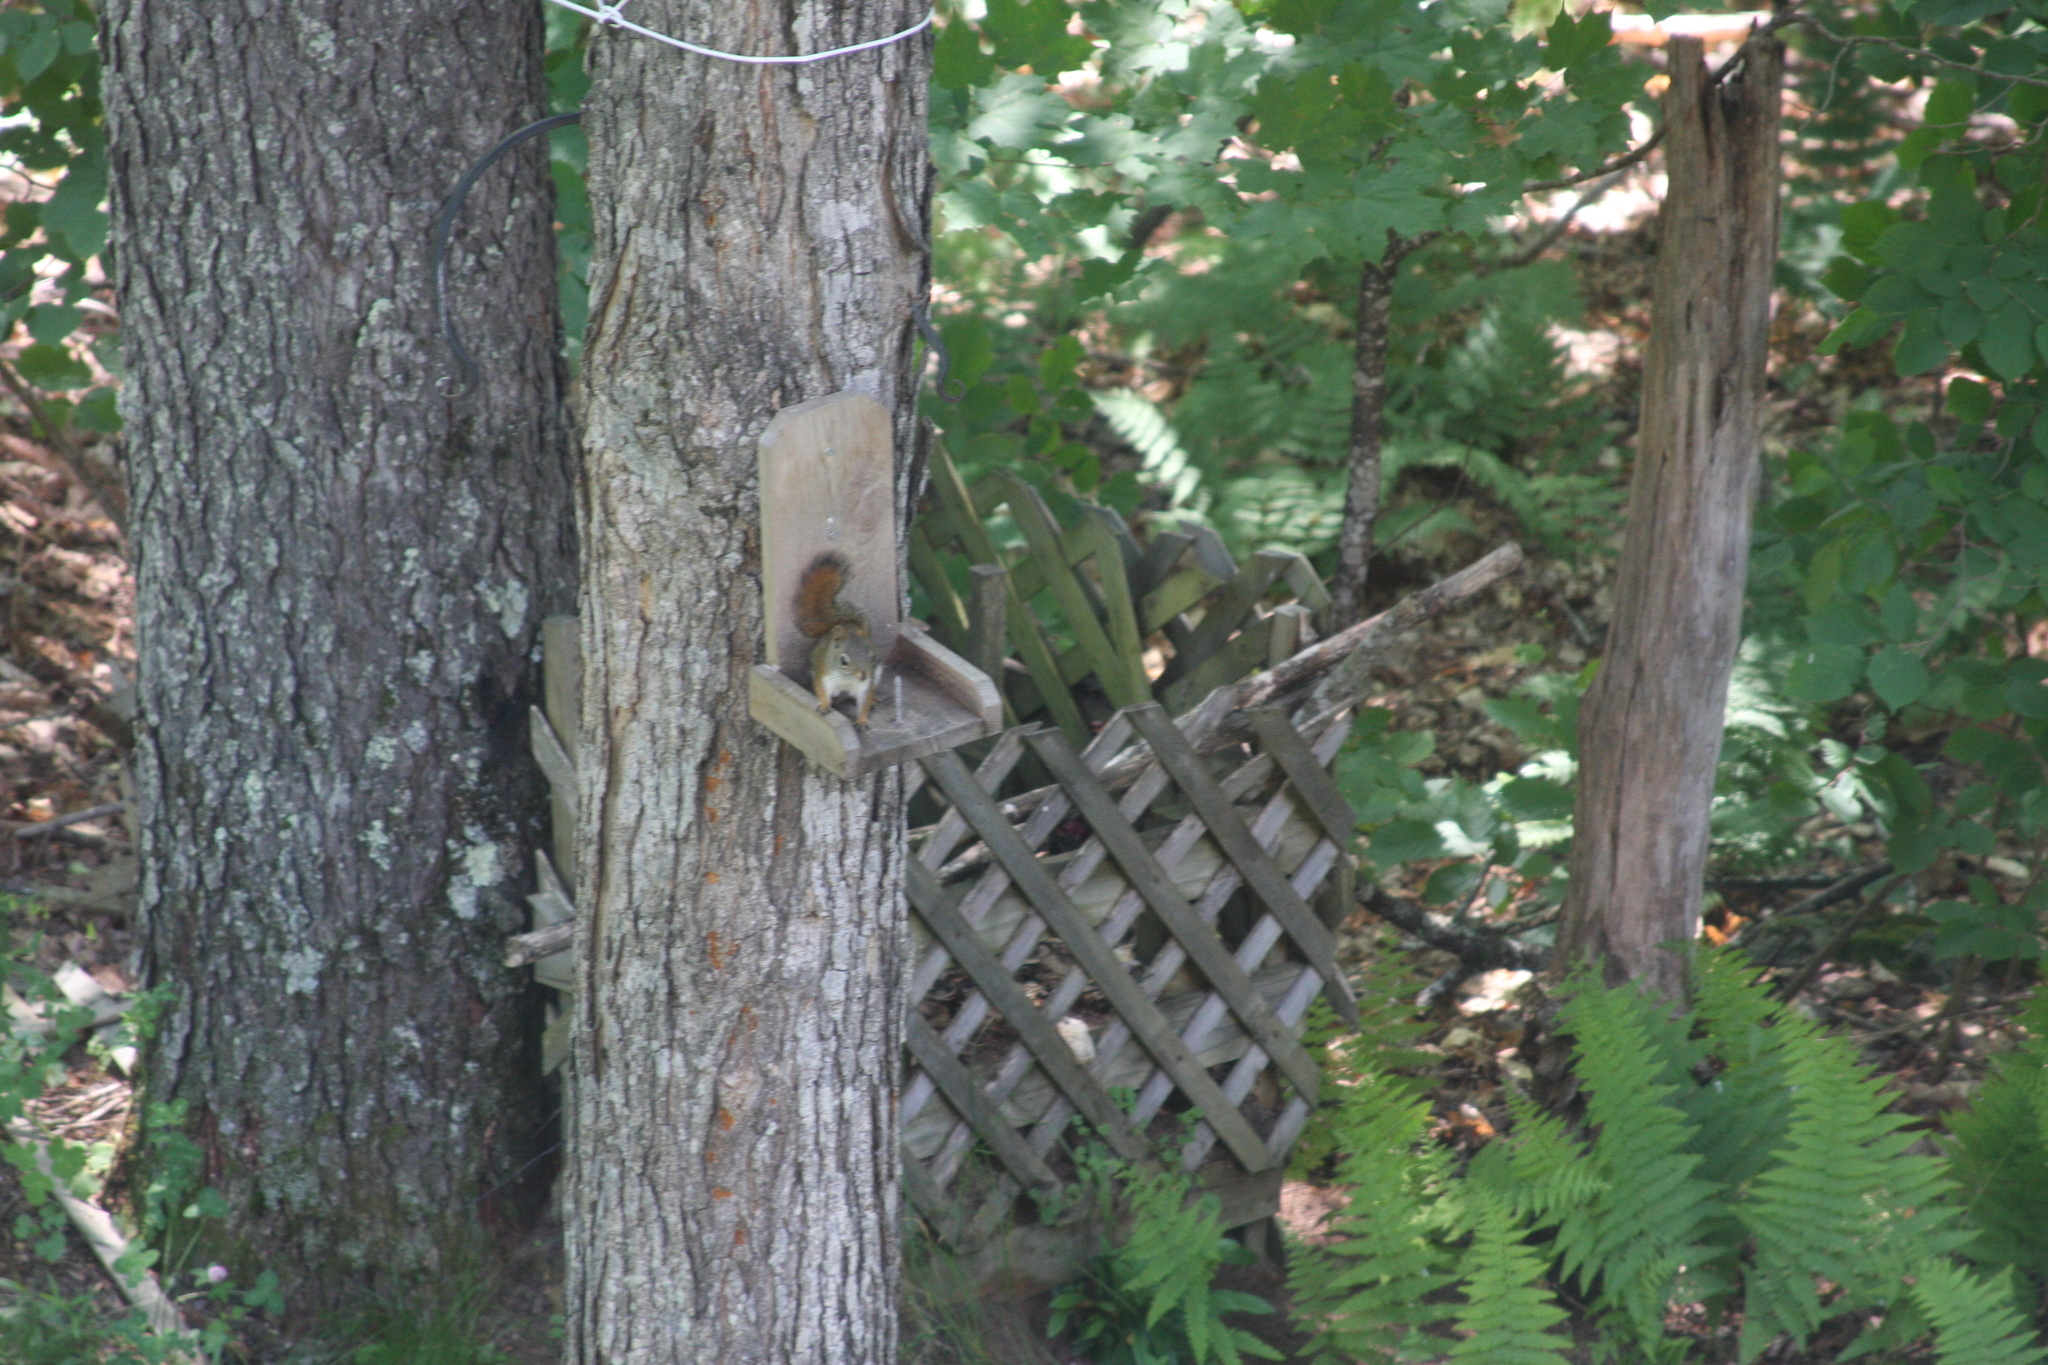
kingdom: Animalia
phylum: Chordata
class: Mammalia
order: Rodentia
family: Sciuridae
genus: Tamiasciurus
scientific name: Tamiasciurus hudsonicus
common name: Red squirrel
